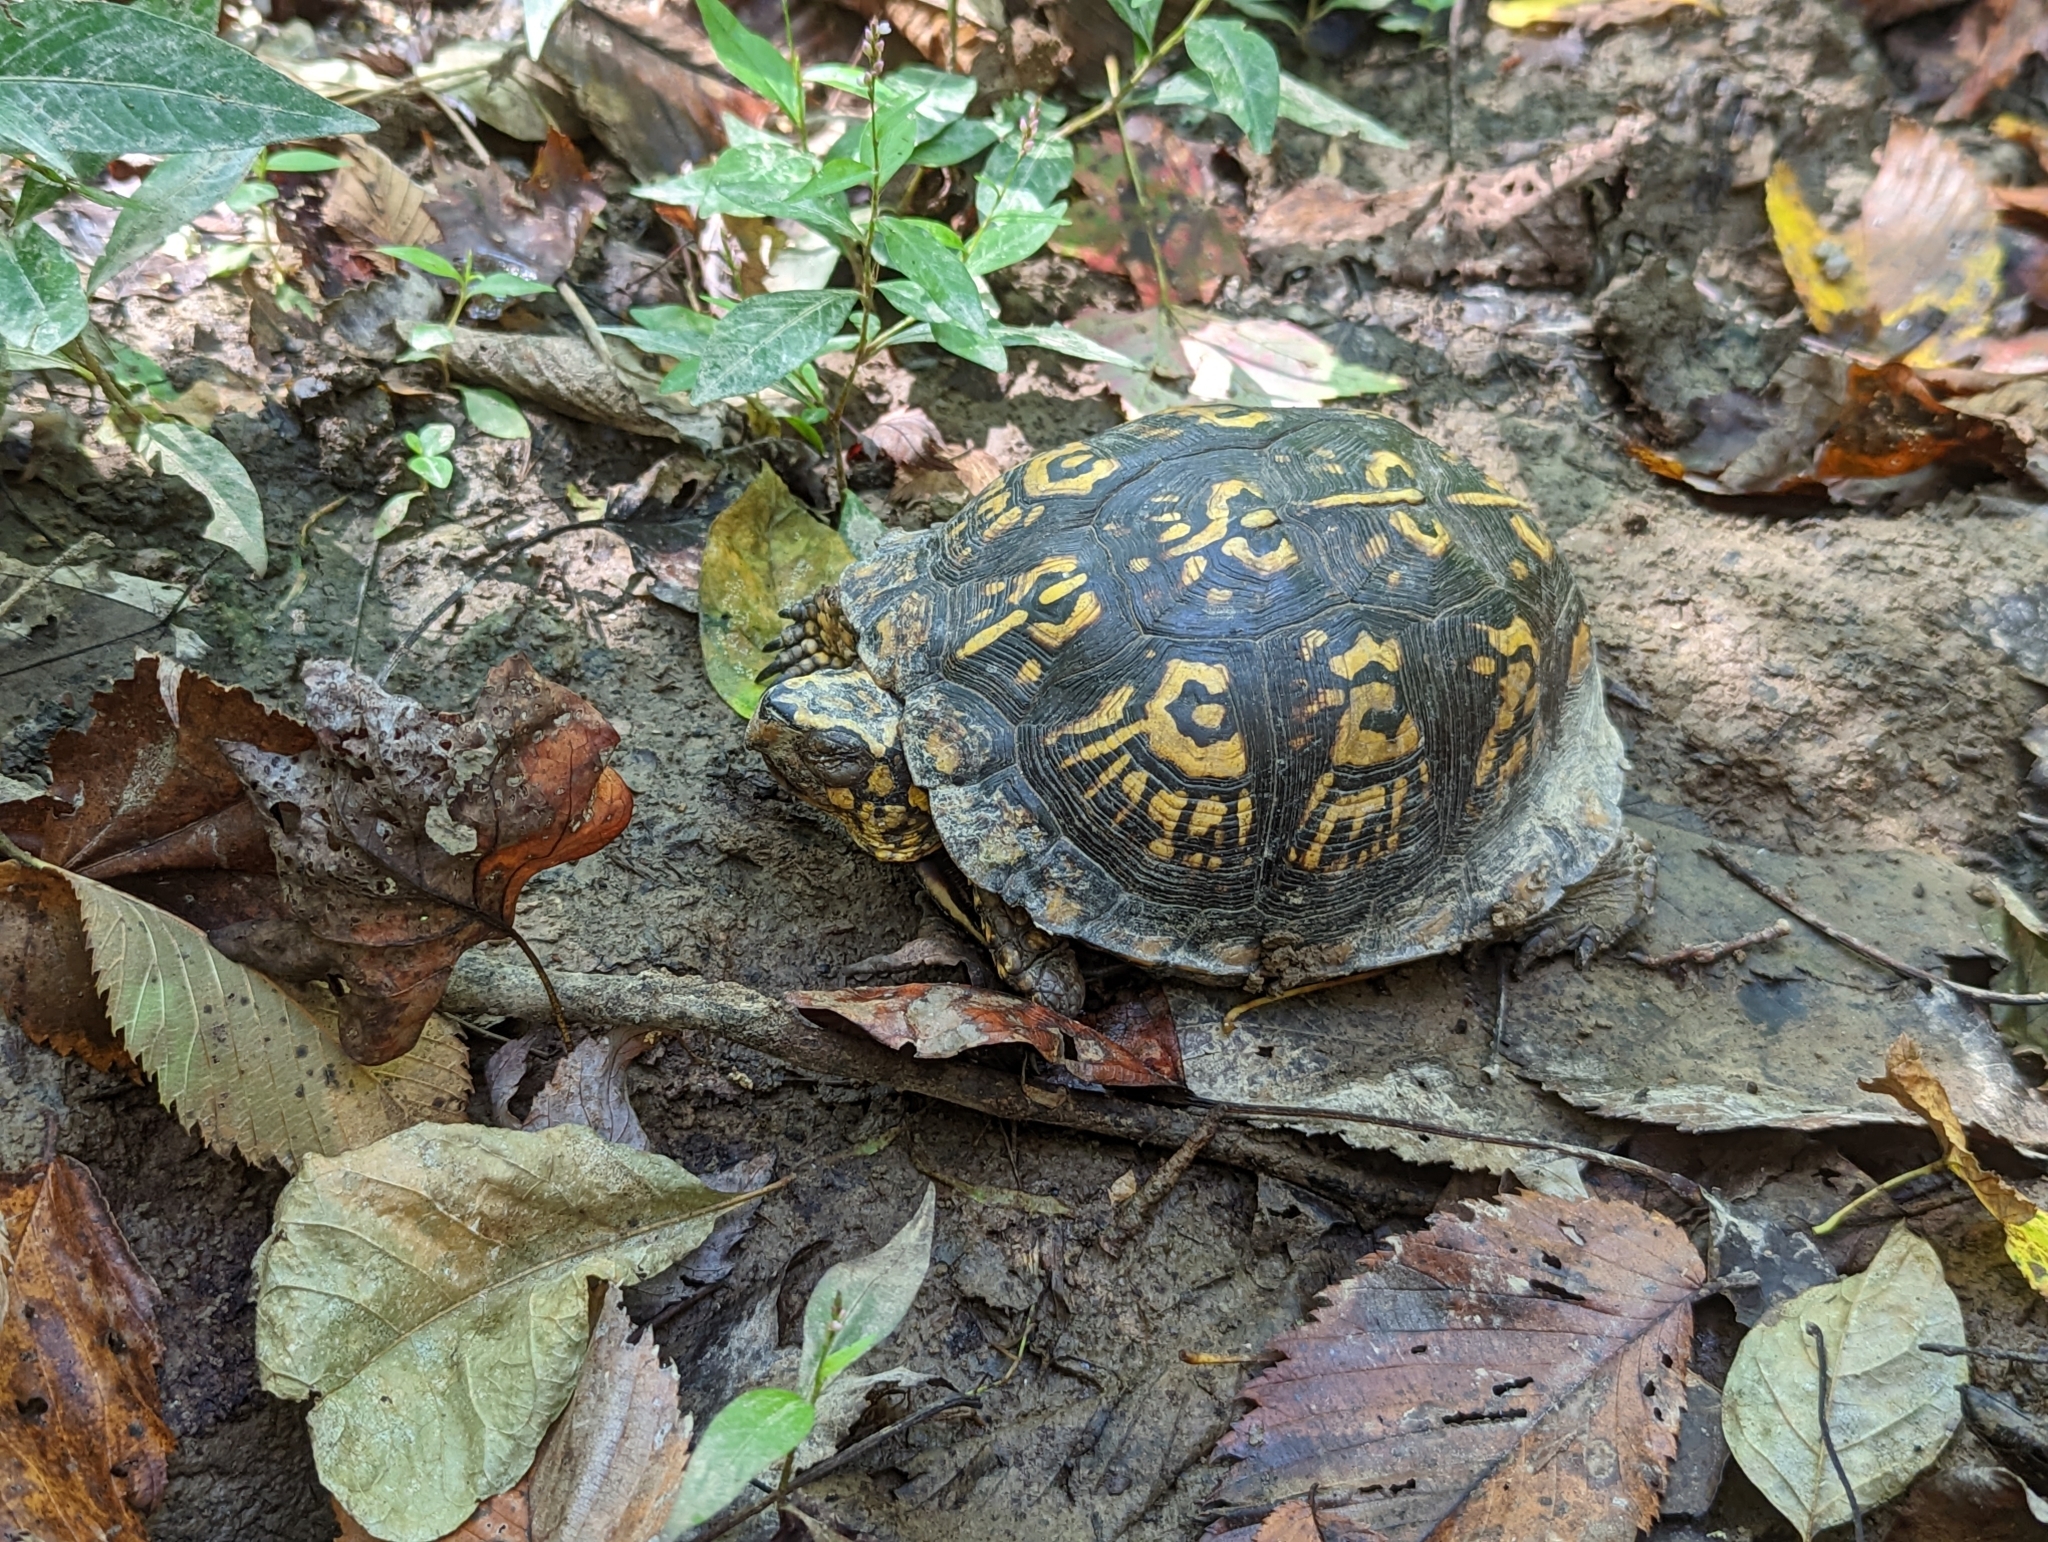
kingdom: Animalia
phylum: Chordata
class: Testudines
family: Emydidae
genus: Terrapene
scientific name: Terrapene carolina
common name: Common box turtle
